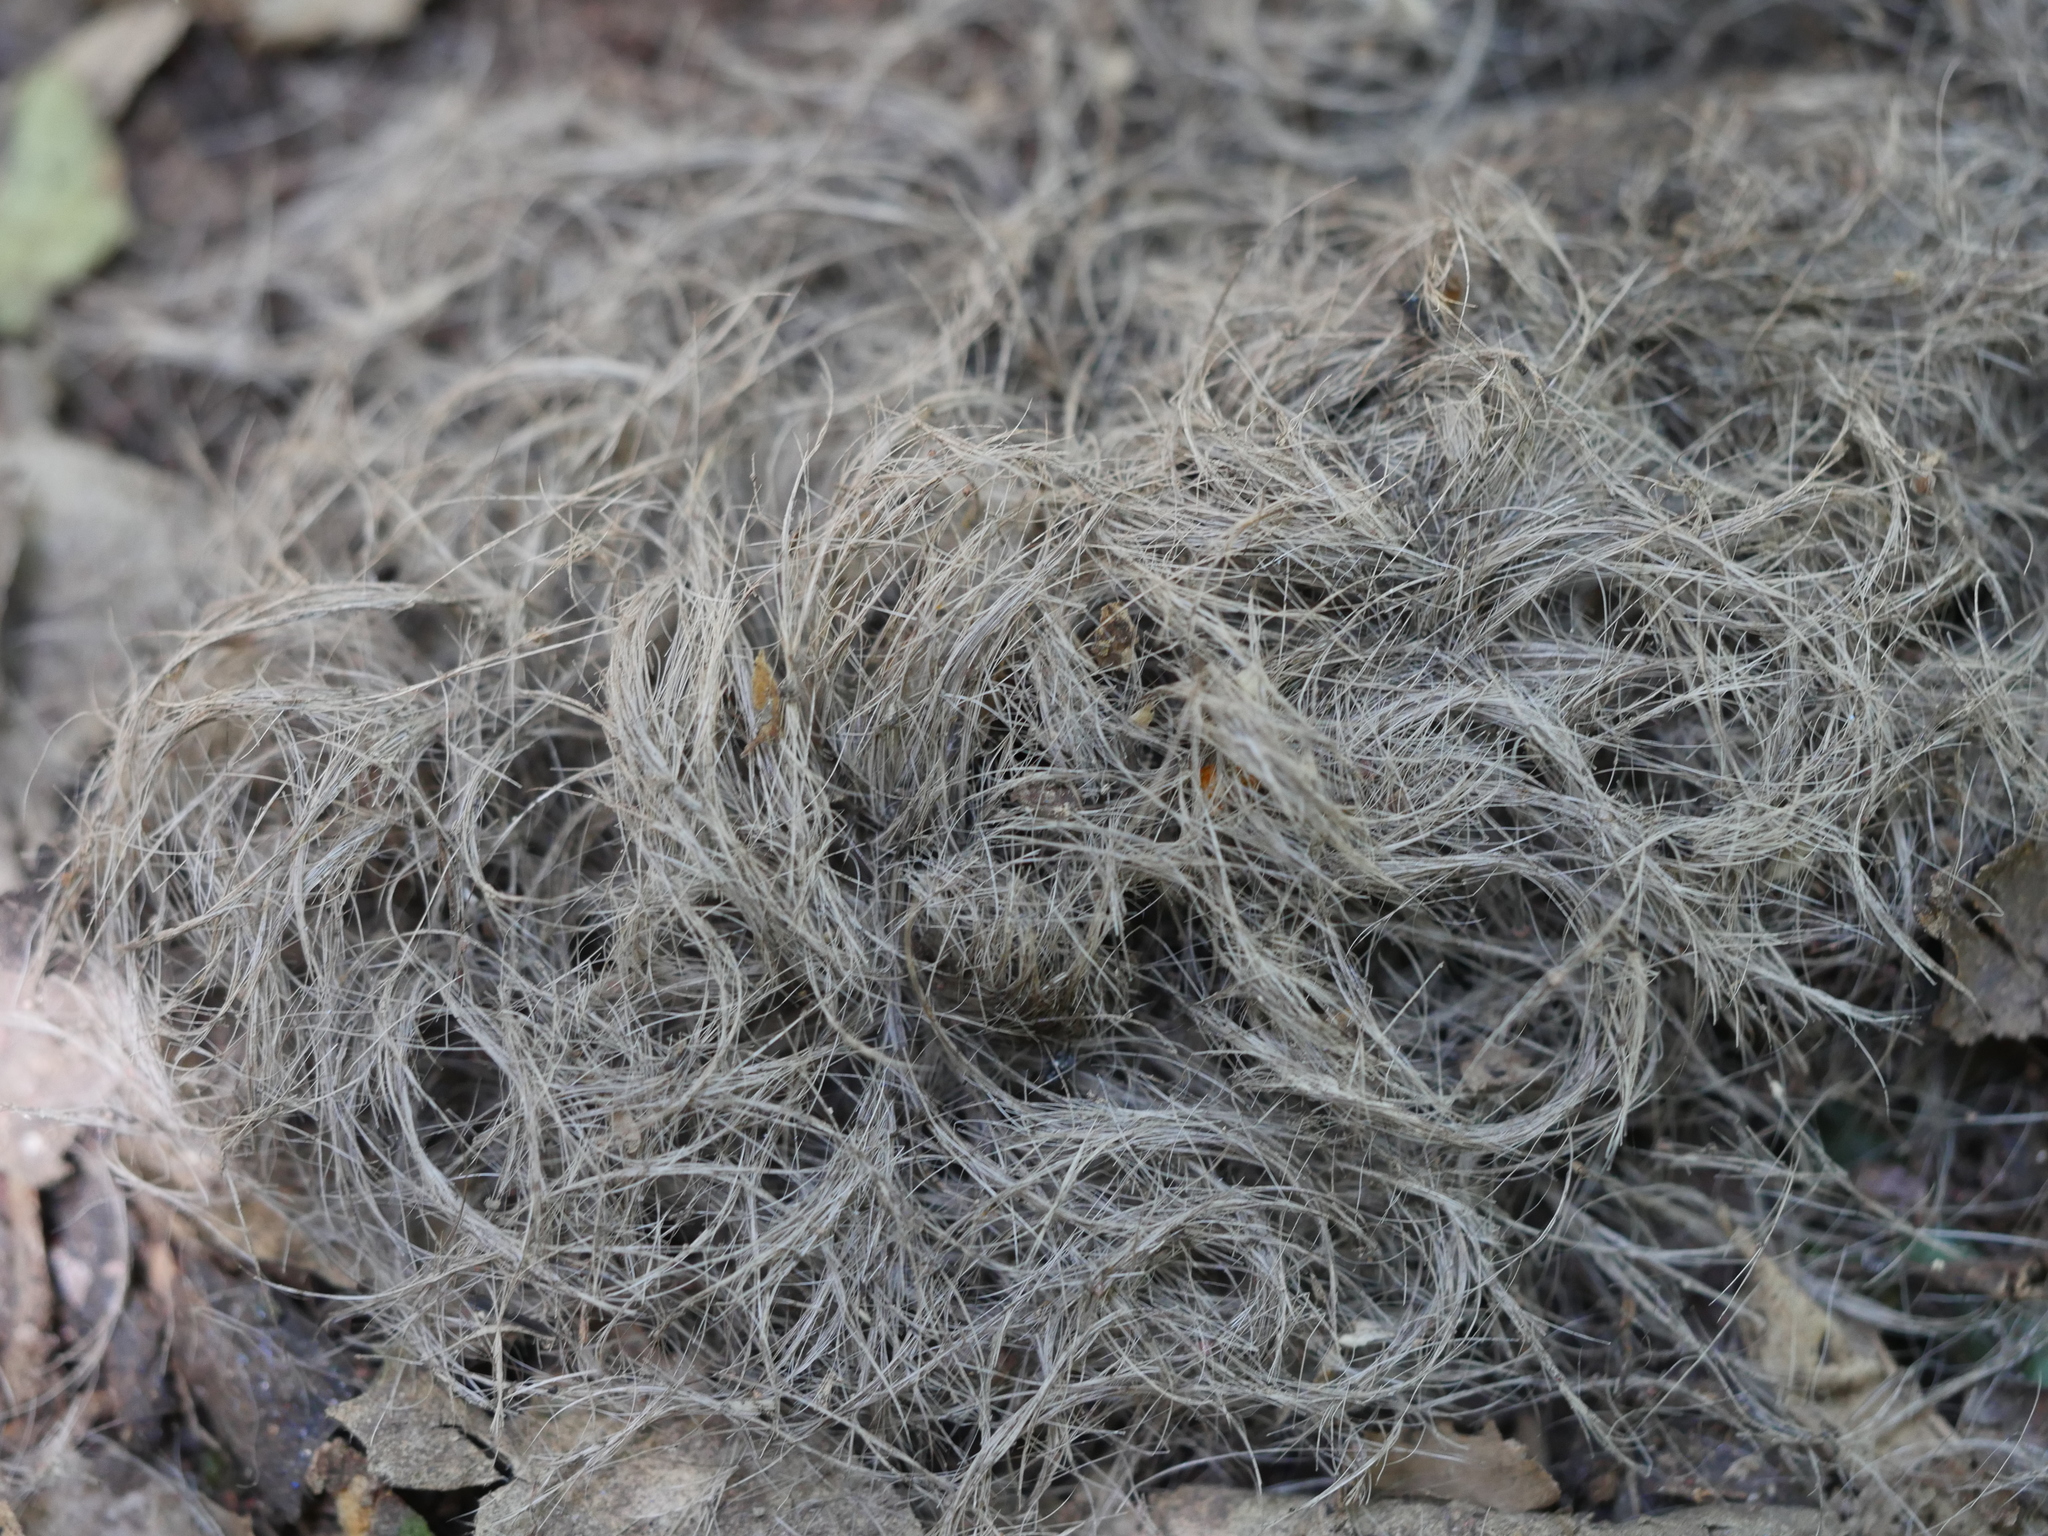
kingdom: Animalia
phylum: Chordata
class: Mammalia
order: Carnivora
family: Felidae
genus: Panthera
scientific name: Panthera pardus
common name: Leopard
